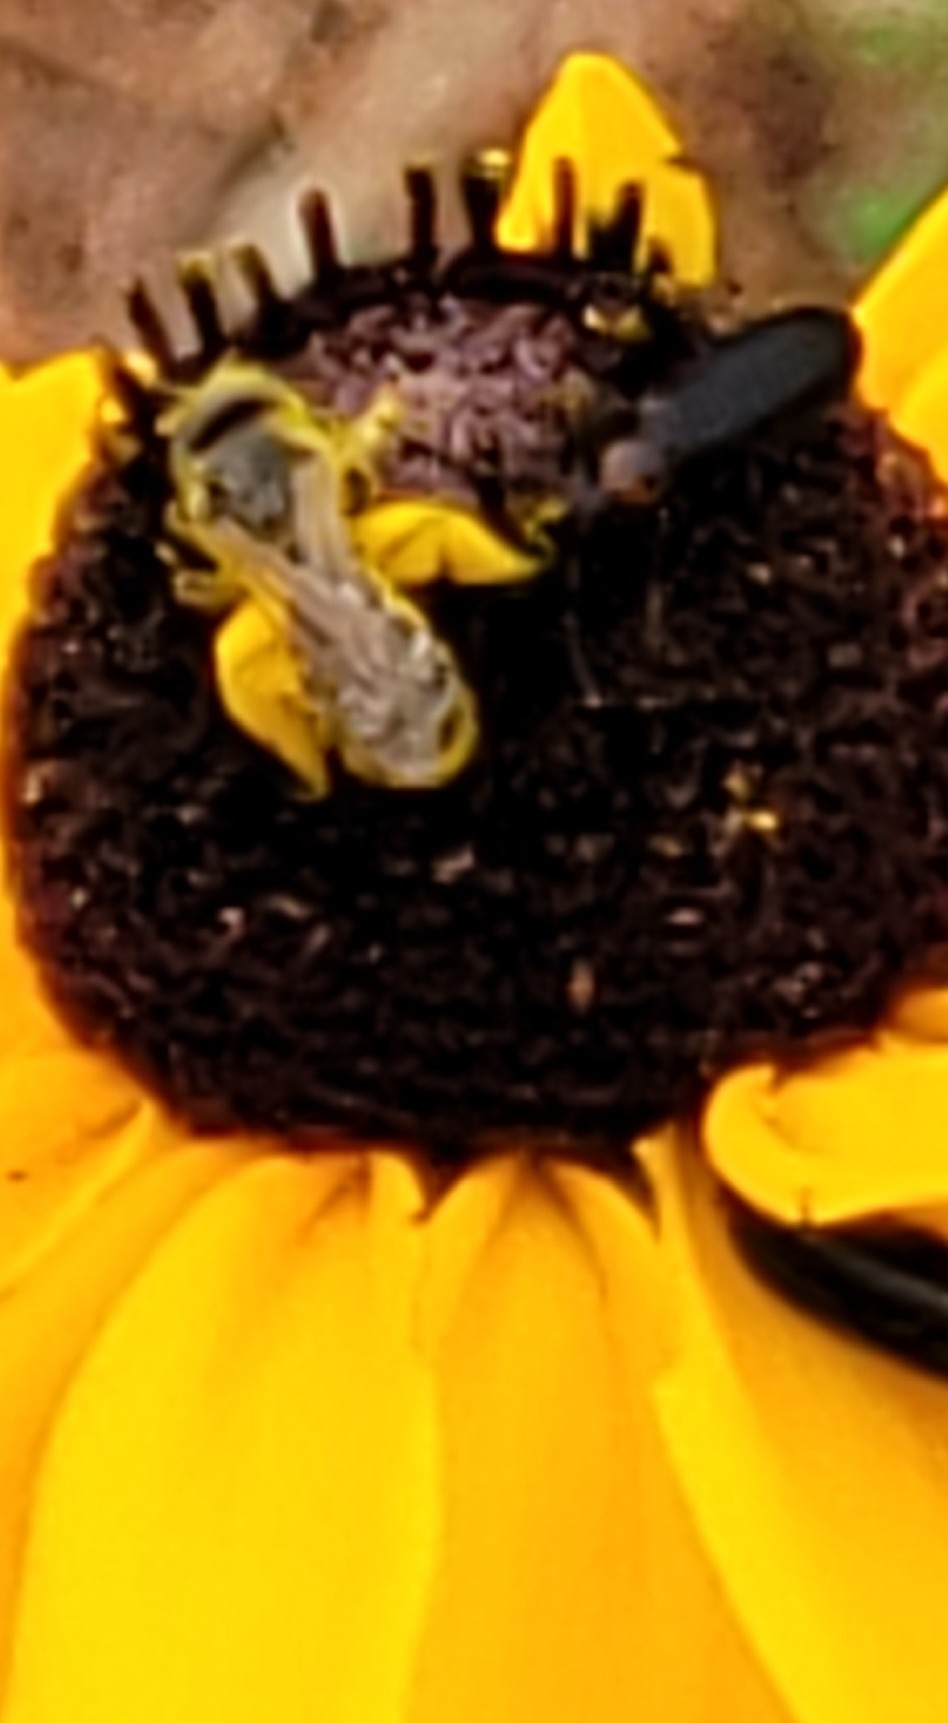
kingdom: Animalia
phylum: Arthropoda
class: Insecta
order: Hymenoptera
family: Halictidae
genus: Halictus
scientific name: Halictus ligatus
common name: Ligated furrow bee
